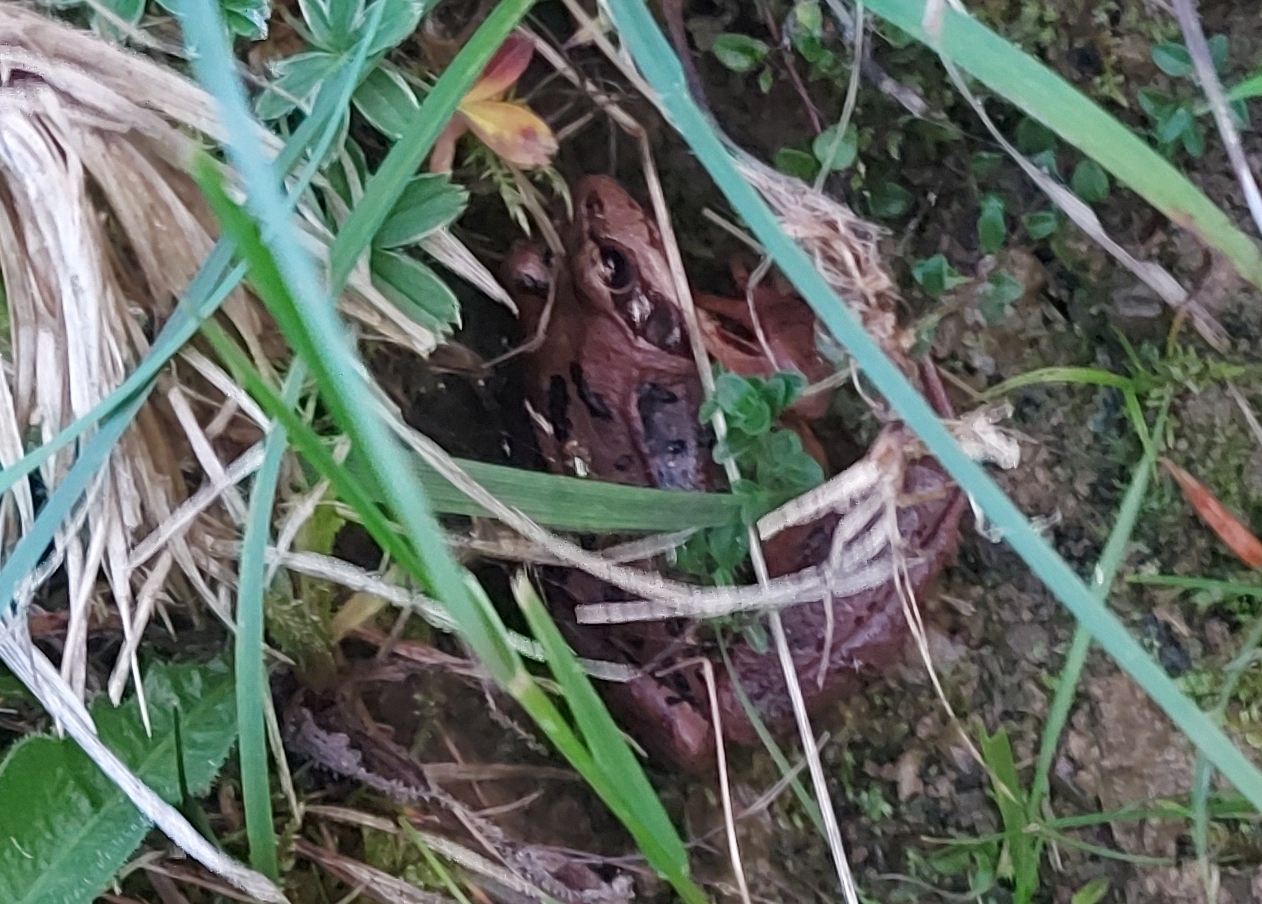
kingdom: Animalia
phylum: Chordata
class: Amphibia
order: Anura
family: Ranidae
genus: Rana
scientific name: Rana temporaria
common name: Common frog
